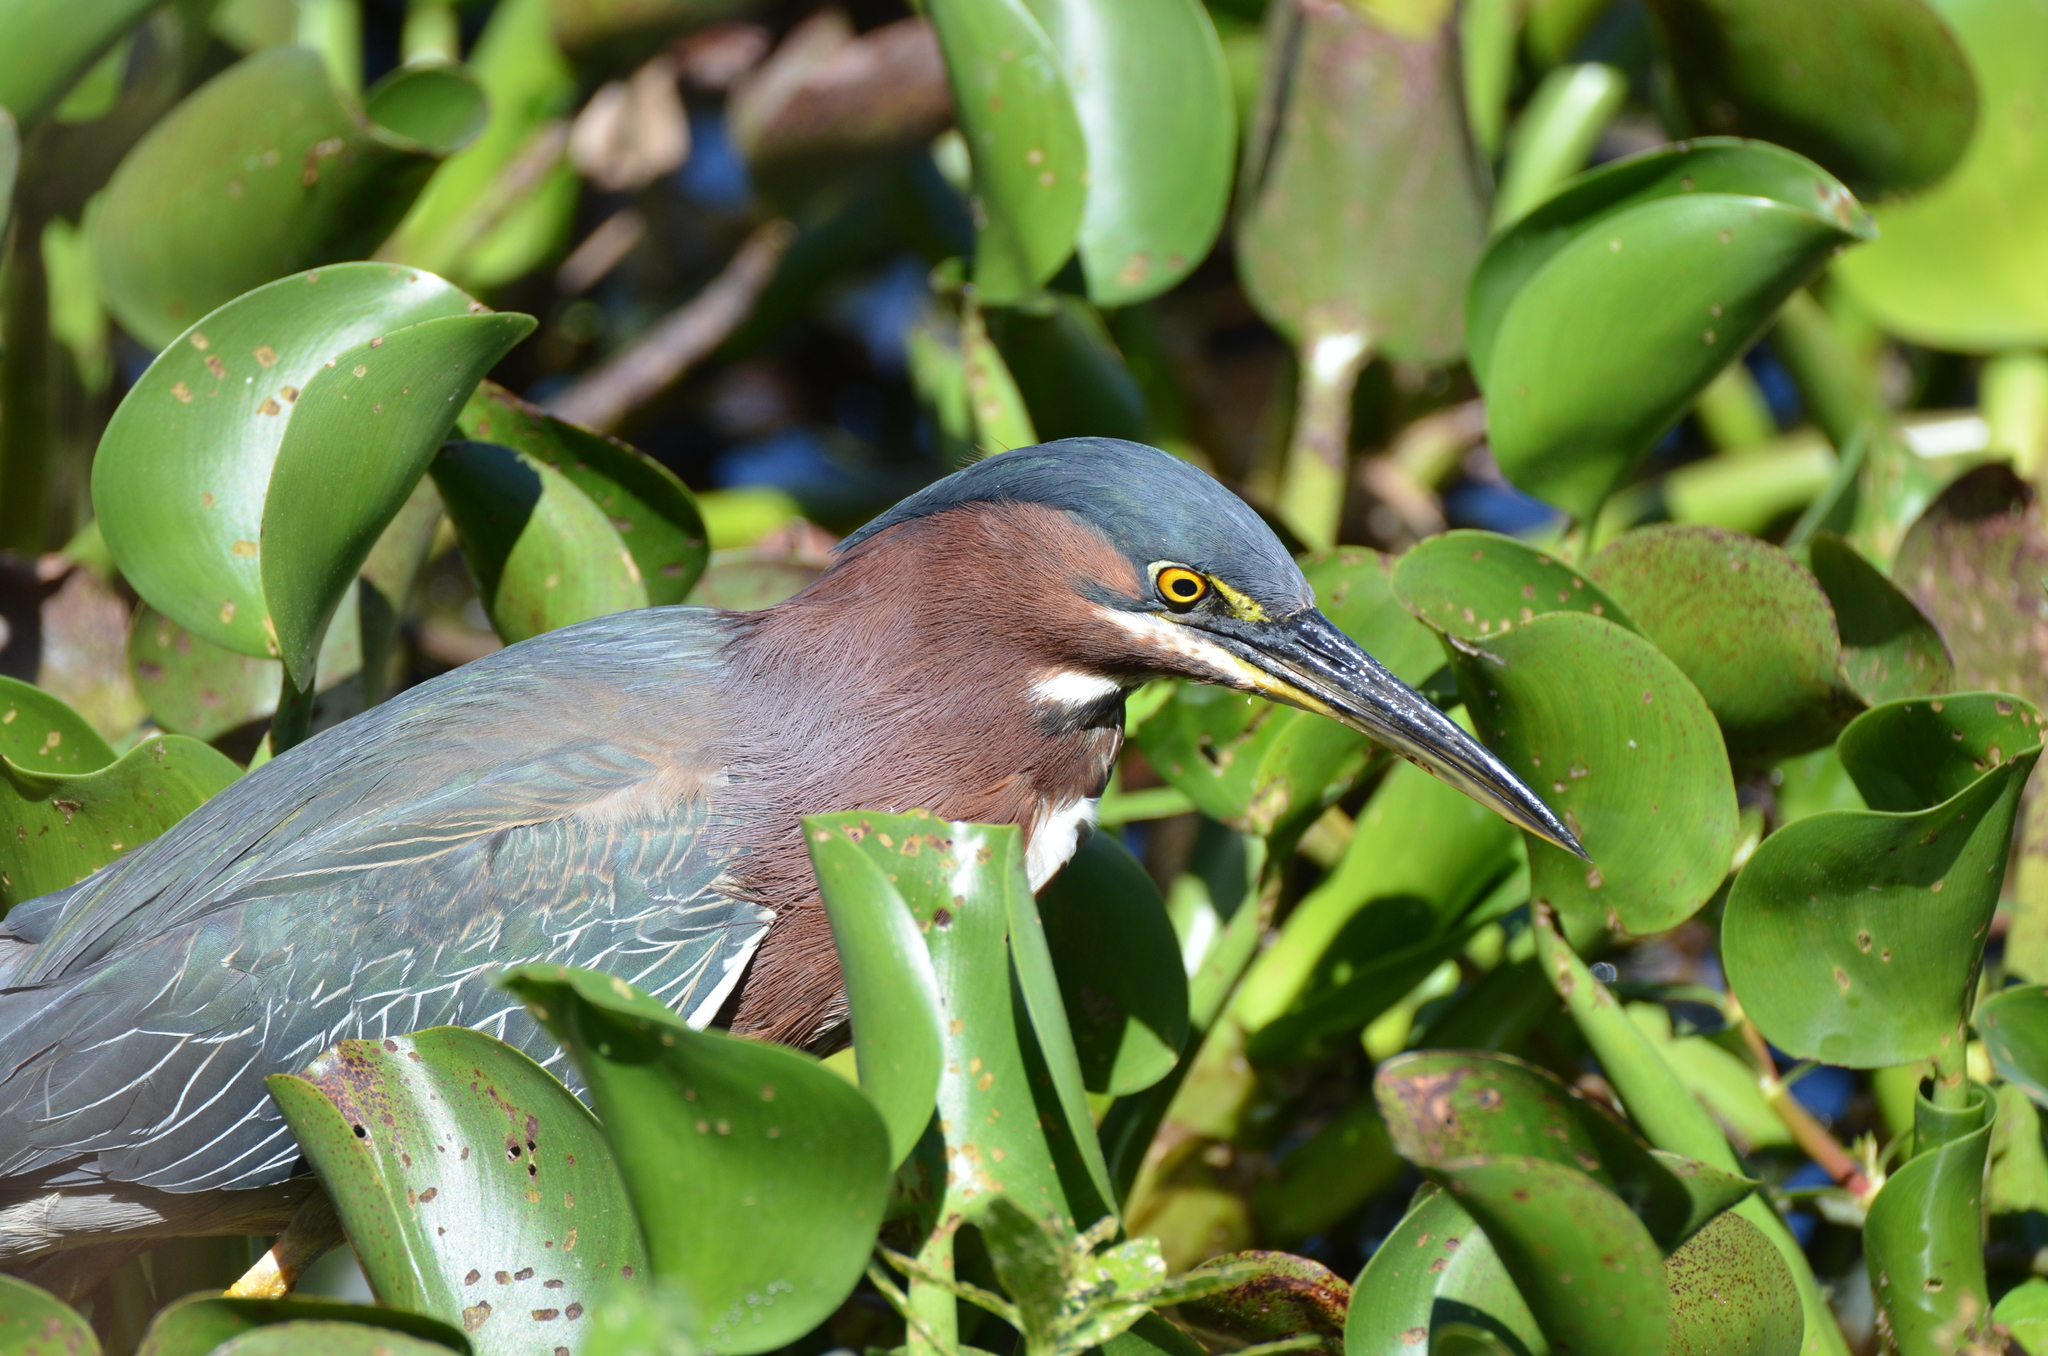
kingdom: Animalia
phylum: Chordata
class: Aves
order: Pelecaniformes
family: Ardeidae
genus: Butorides
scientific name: Butorides virescens
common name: Green heron
